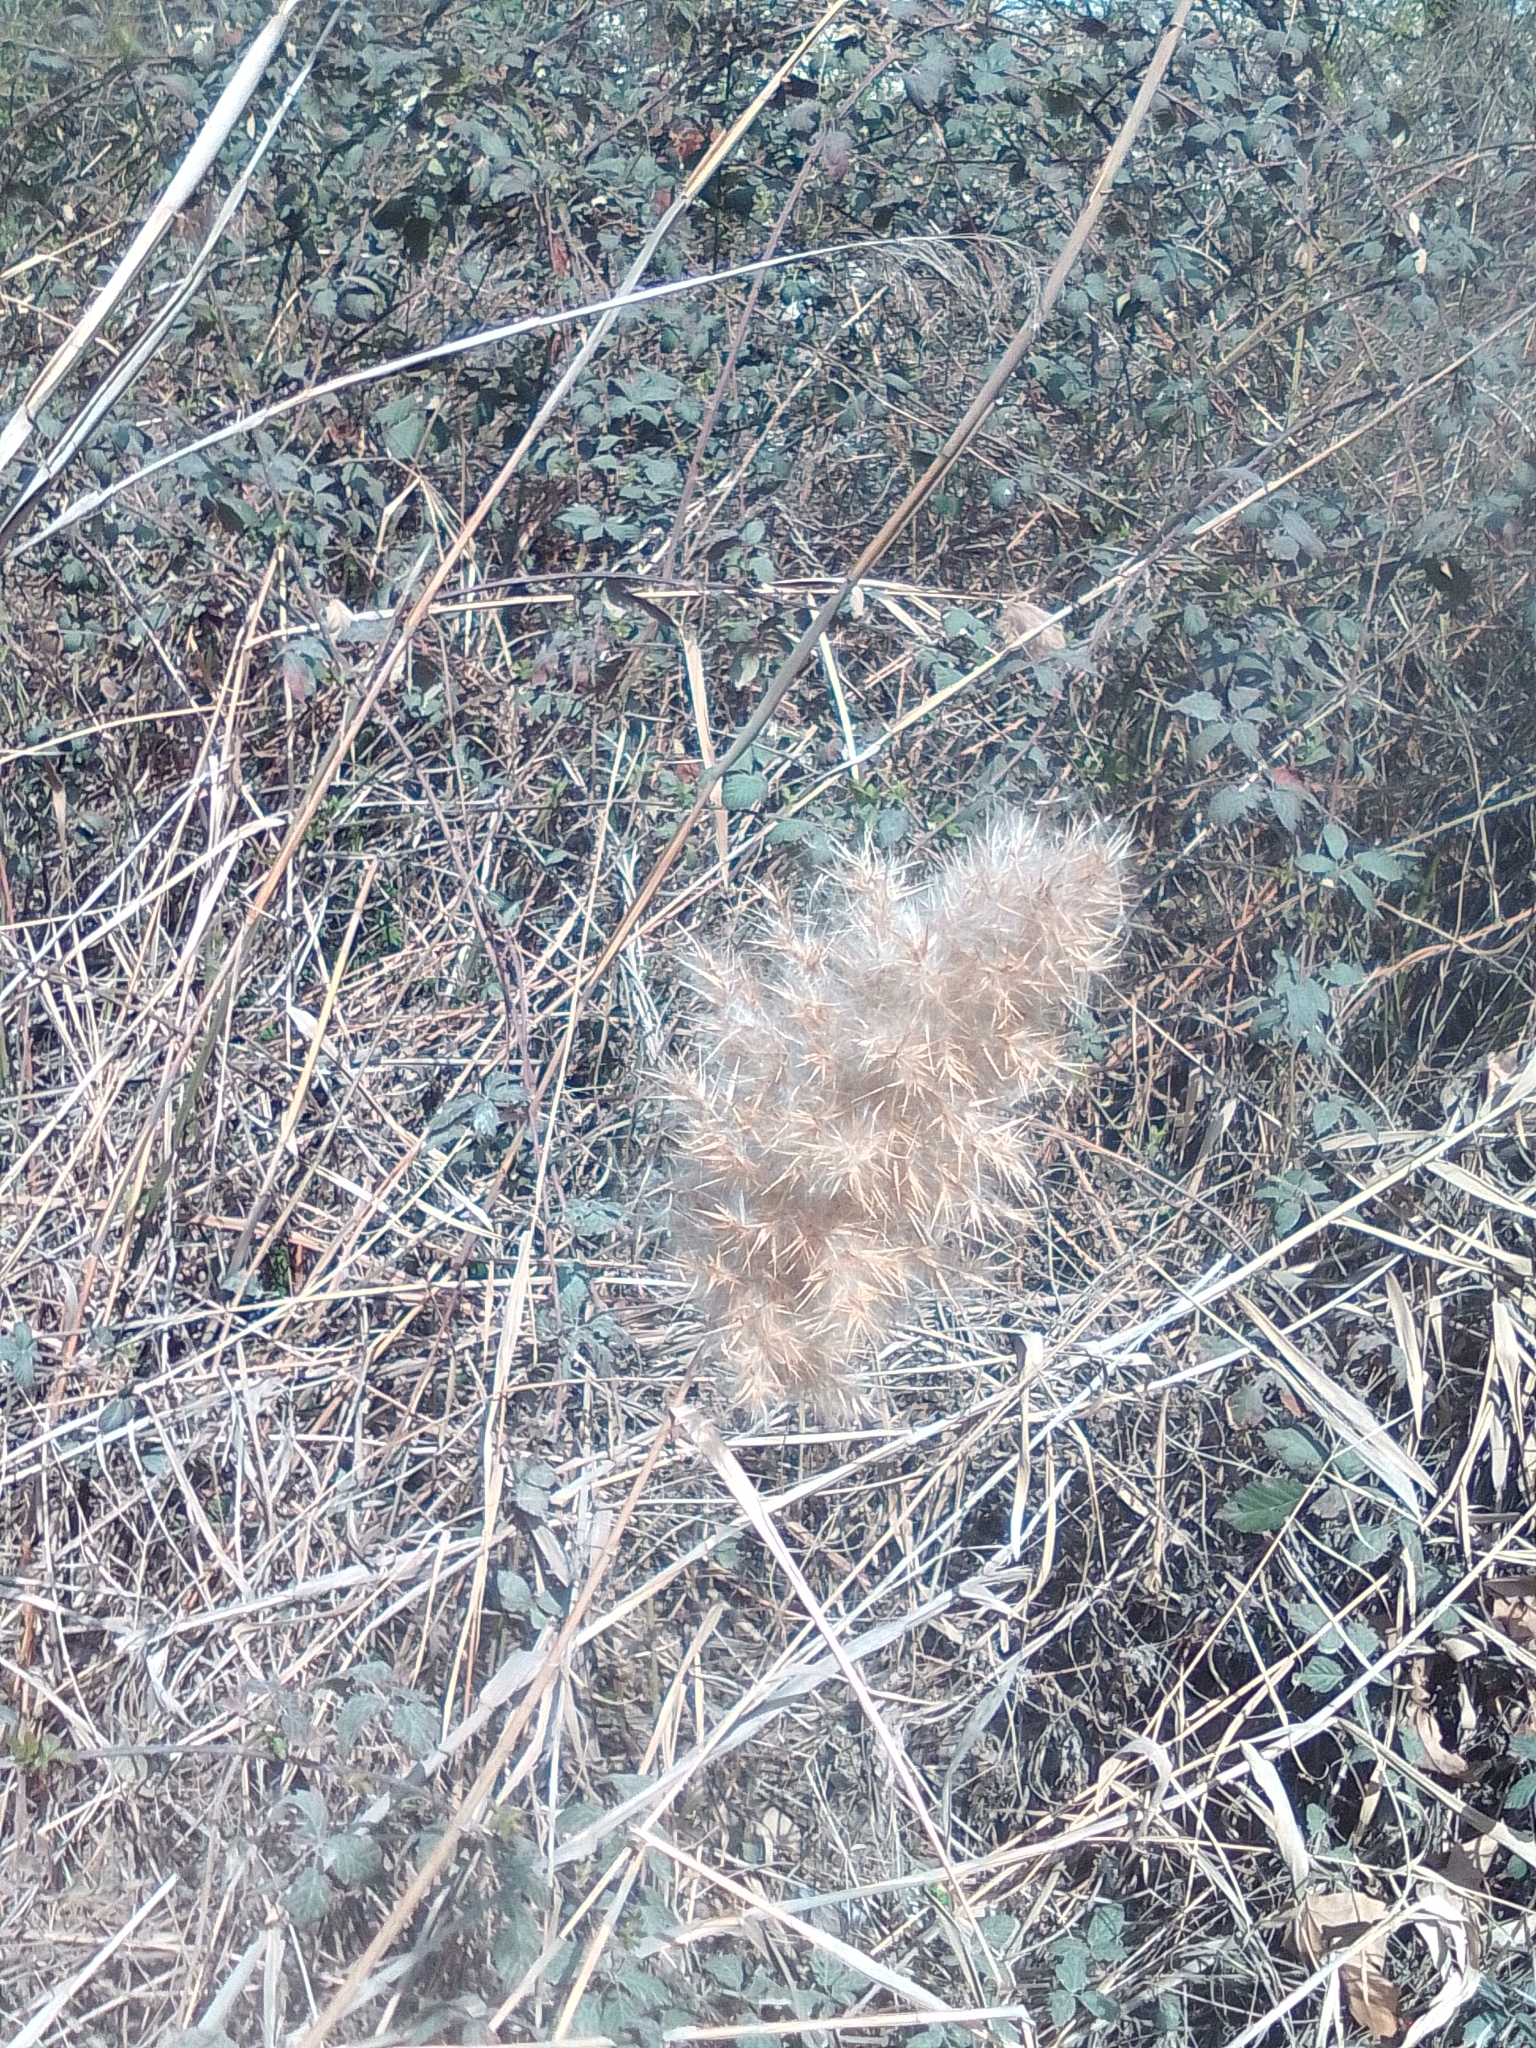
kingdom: Plantae
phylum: Tracheophyta
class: Liliopsida
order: Poales
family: Poaceae
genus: Phragmites
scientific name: Phragmites australis
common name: Common reed
